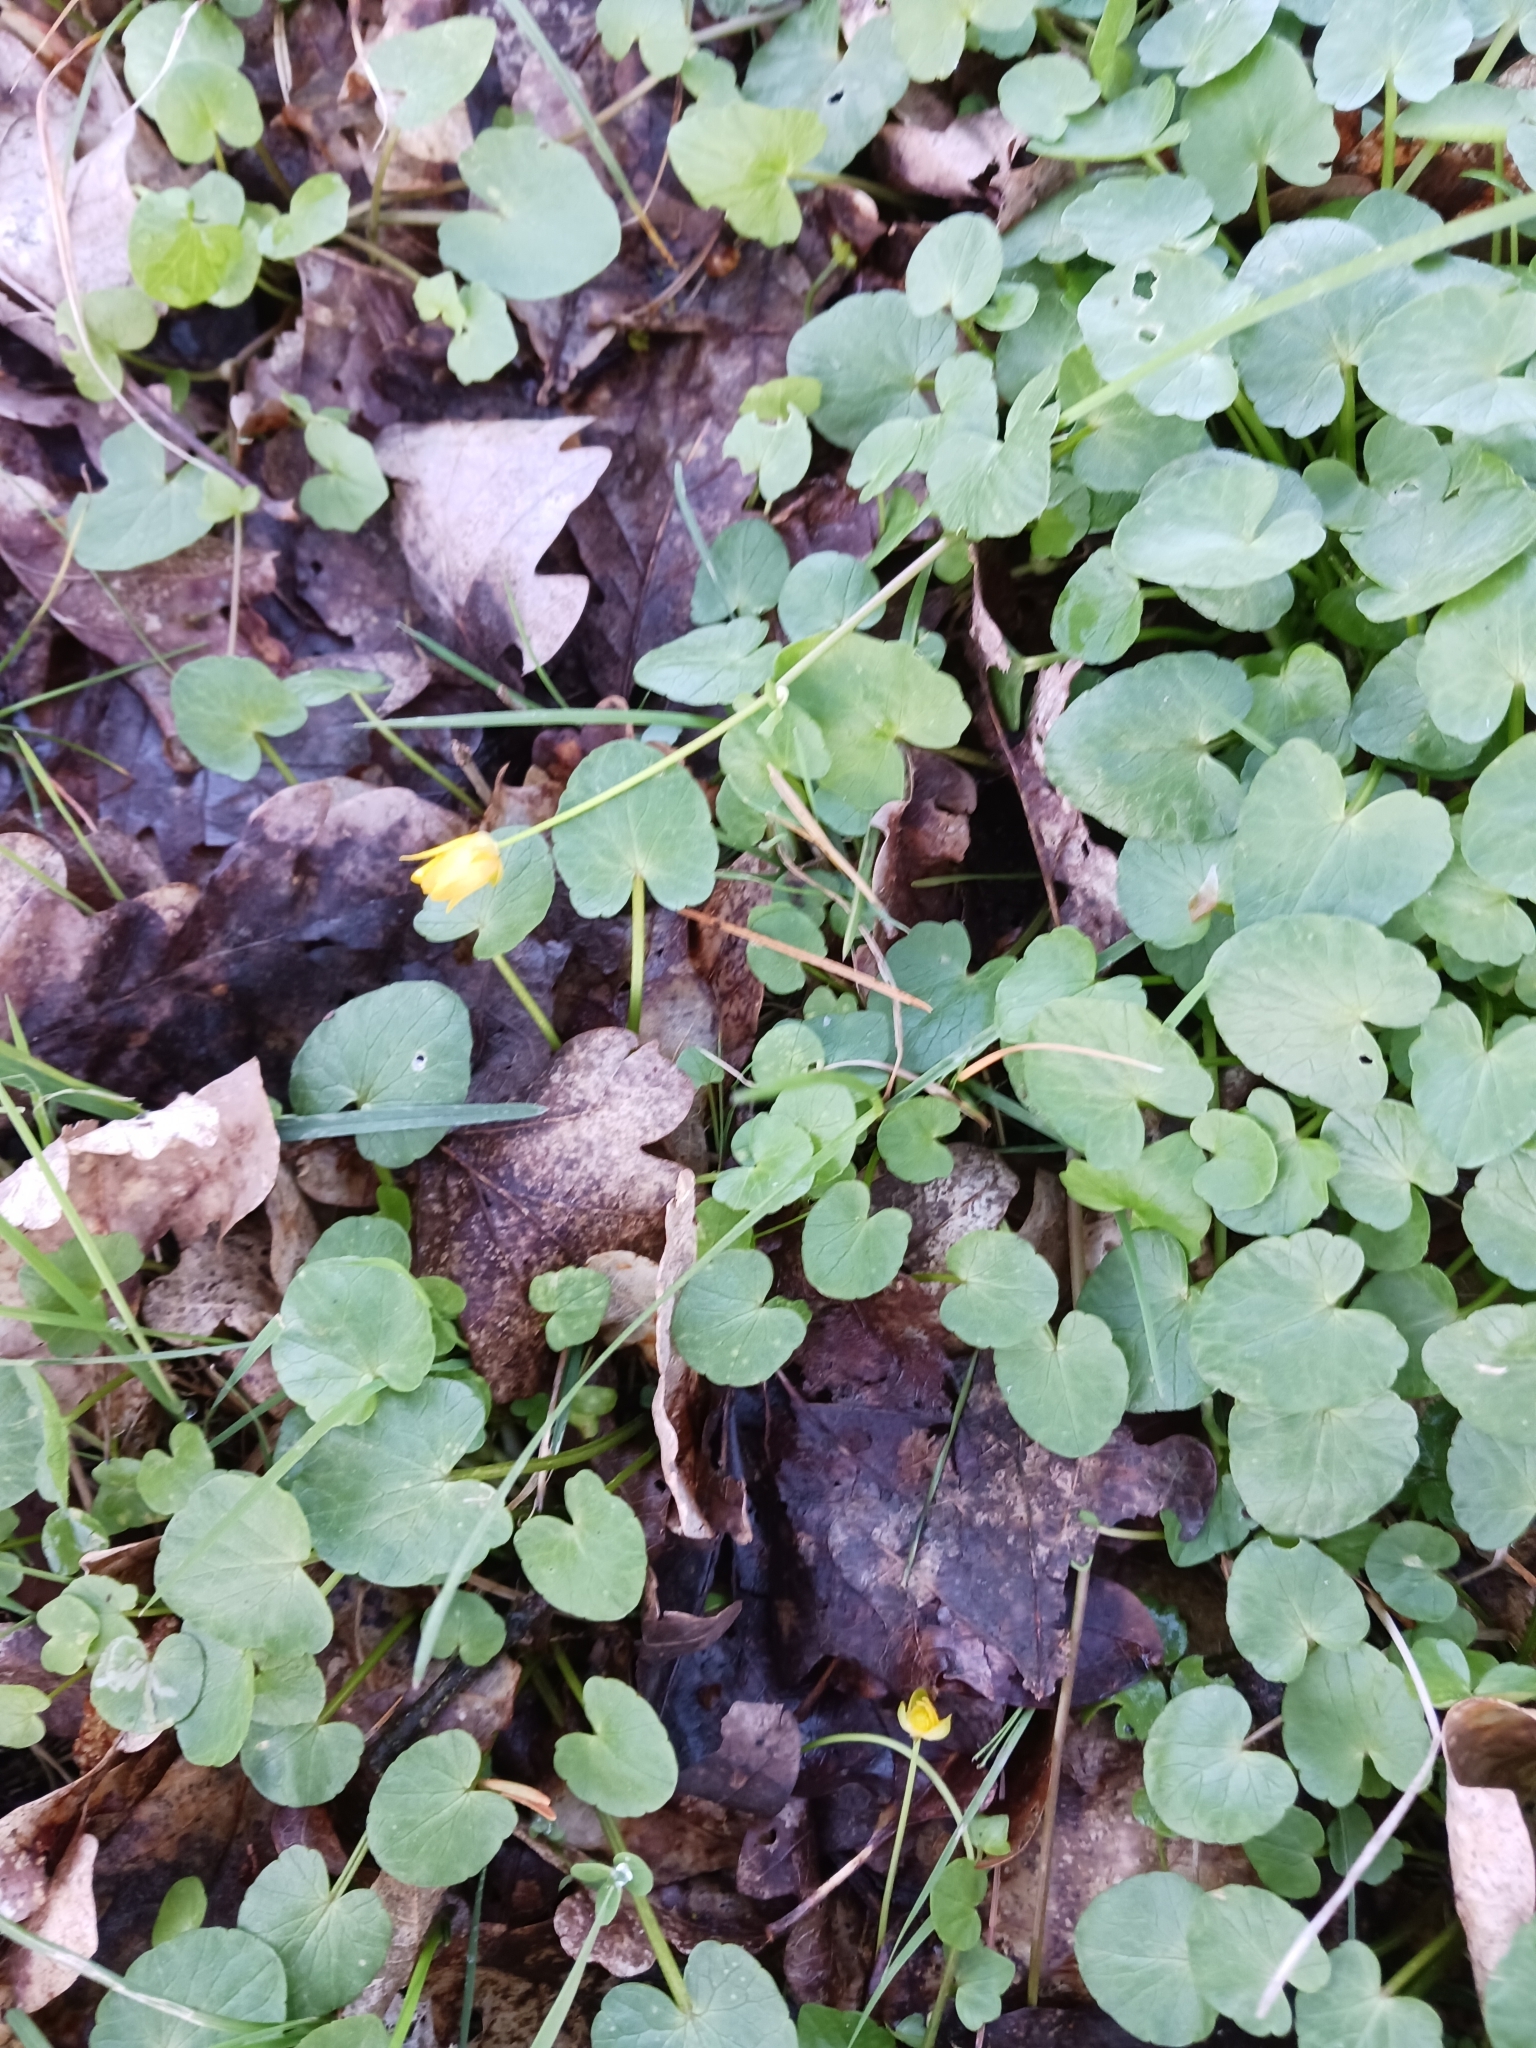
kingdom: Plantae
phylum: Tracheophyta
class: Magnoliopsida
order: Ranunculales
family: Ranunculaceae
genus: Ficaria
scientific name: Ficaria verna
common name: Lesser celandine
